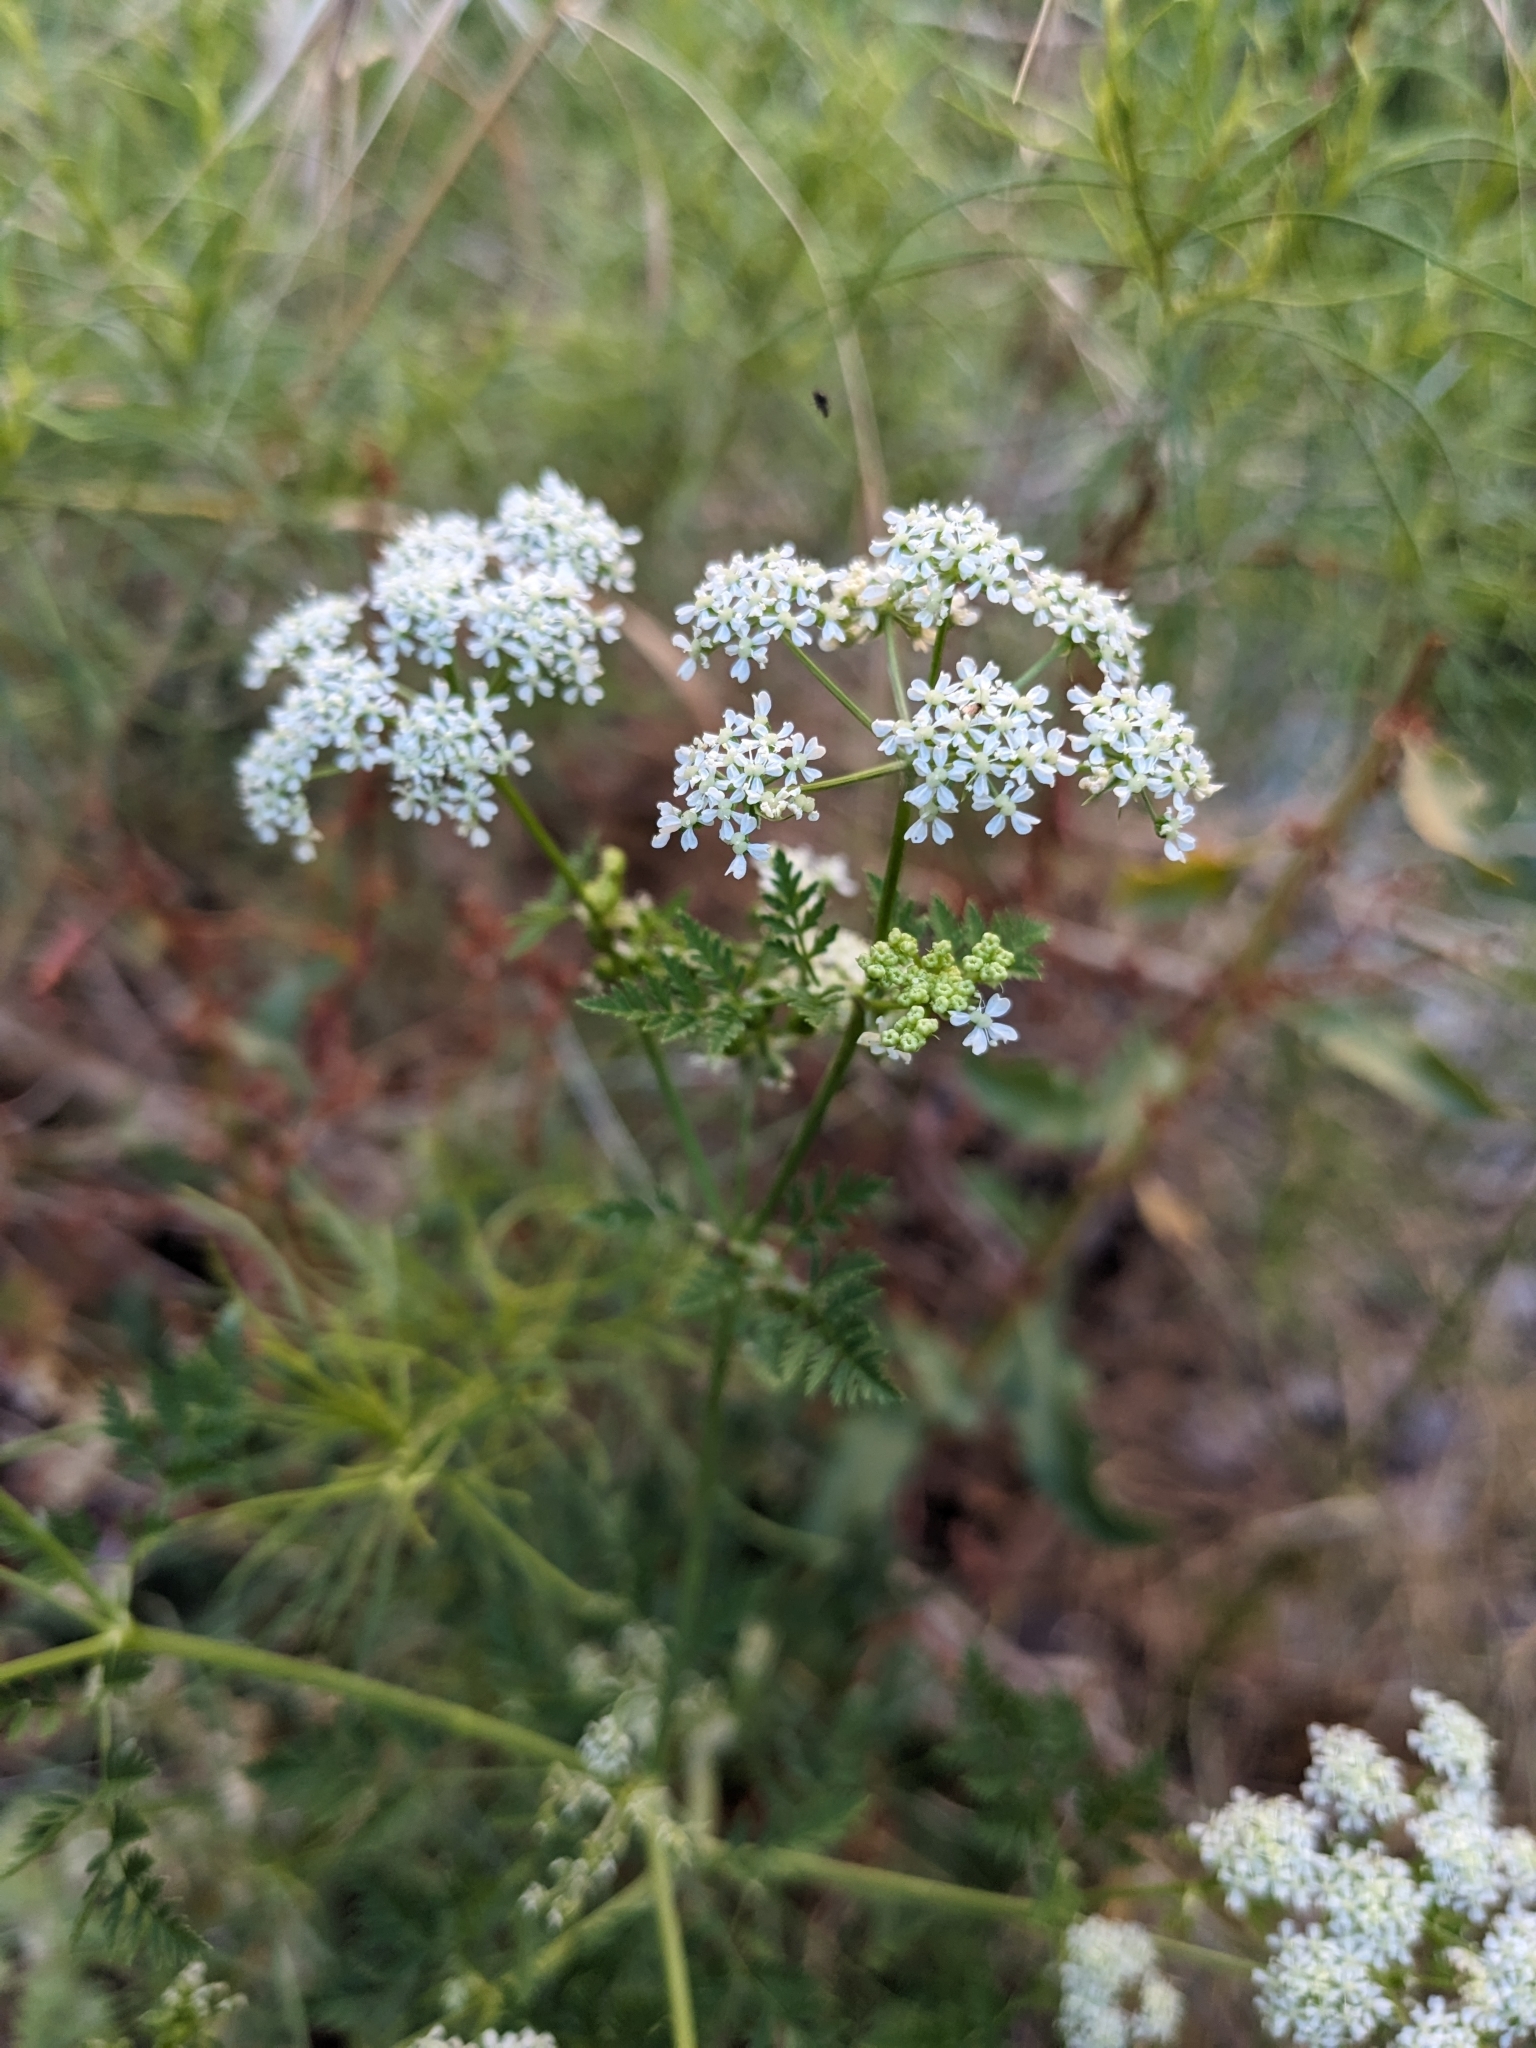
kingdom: Plantae
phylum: Tracheophyta
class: Magnoliopsida
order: Apiales
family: Apiaceae
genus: Conium
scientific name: Conium maculatum
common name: Hemlock
